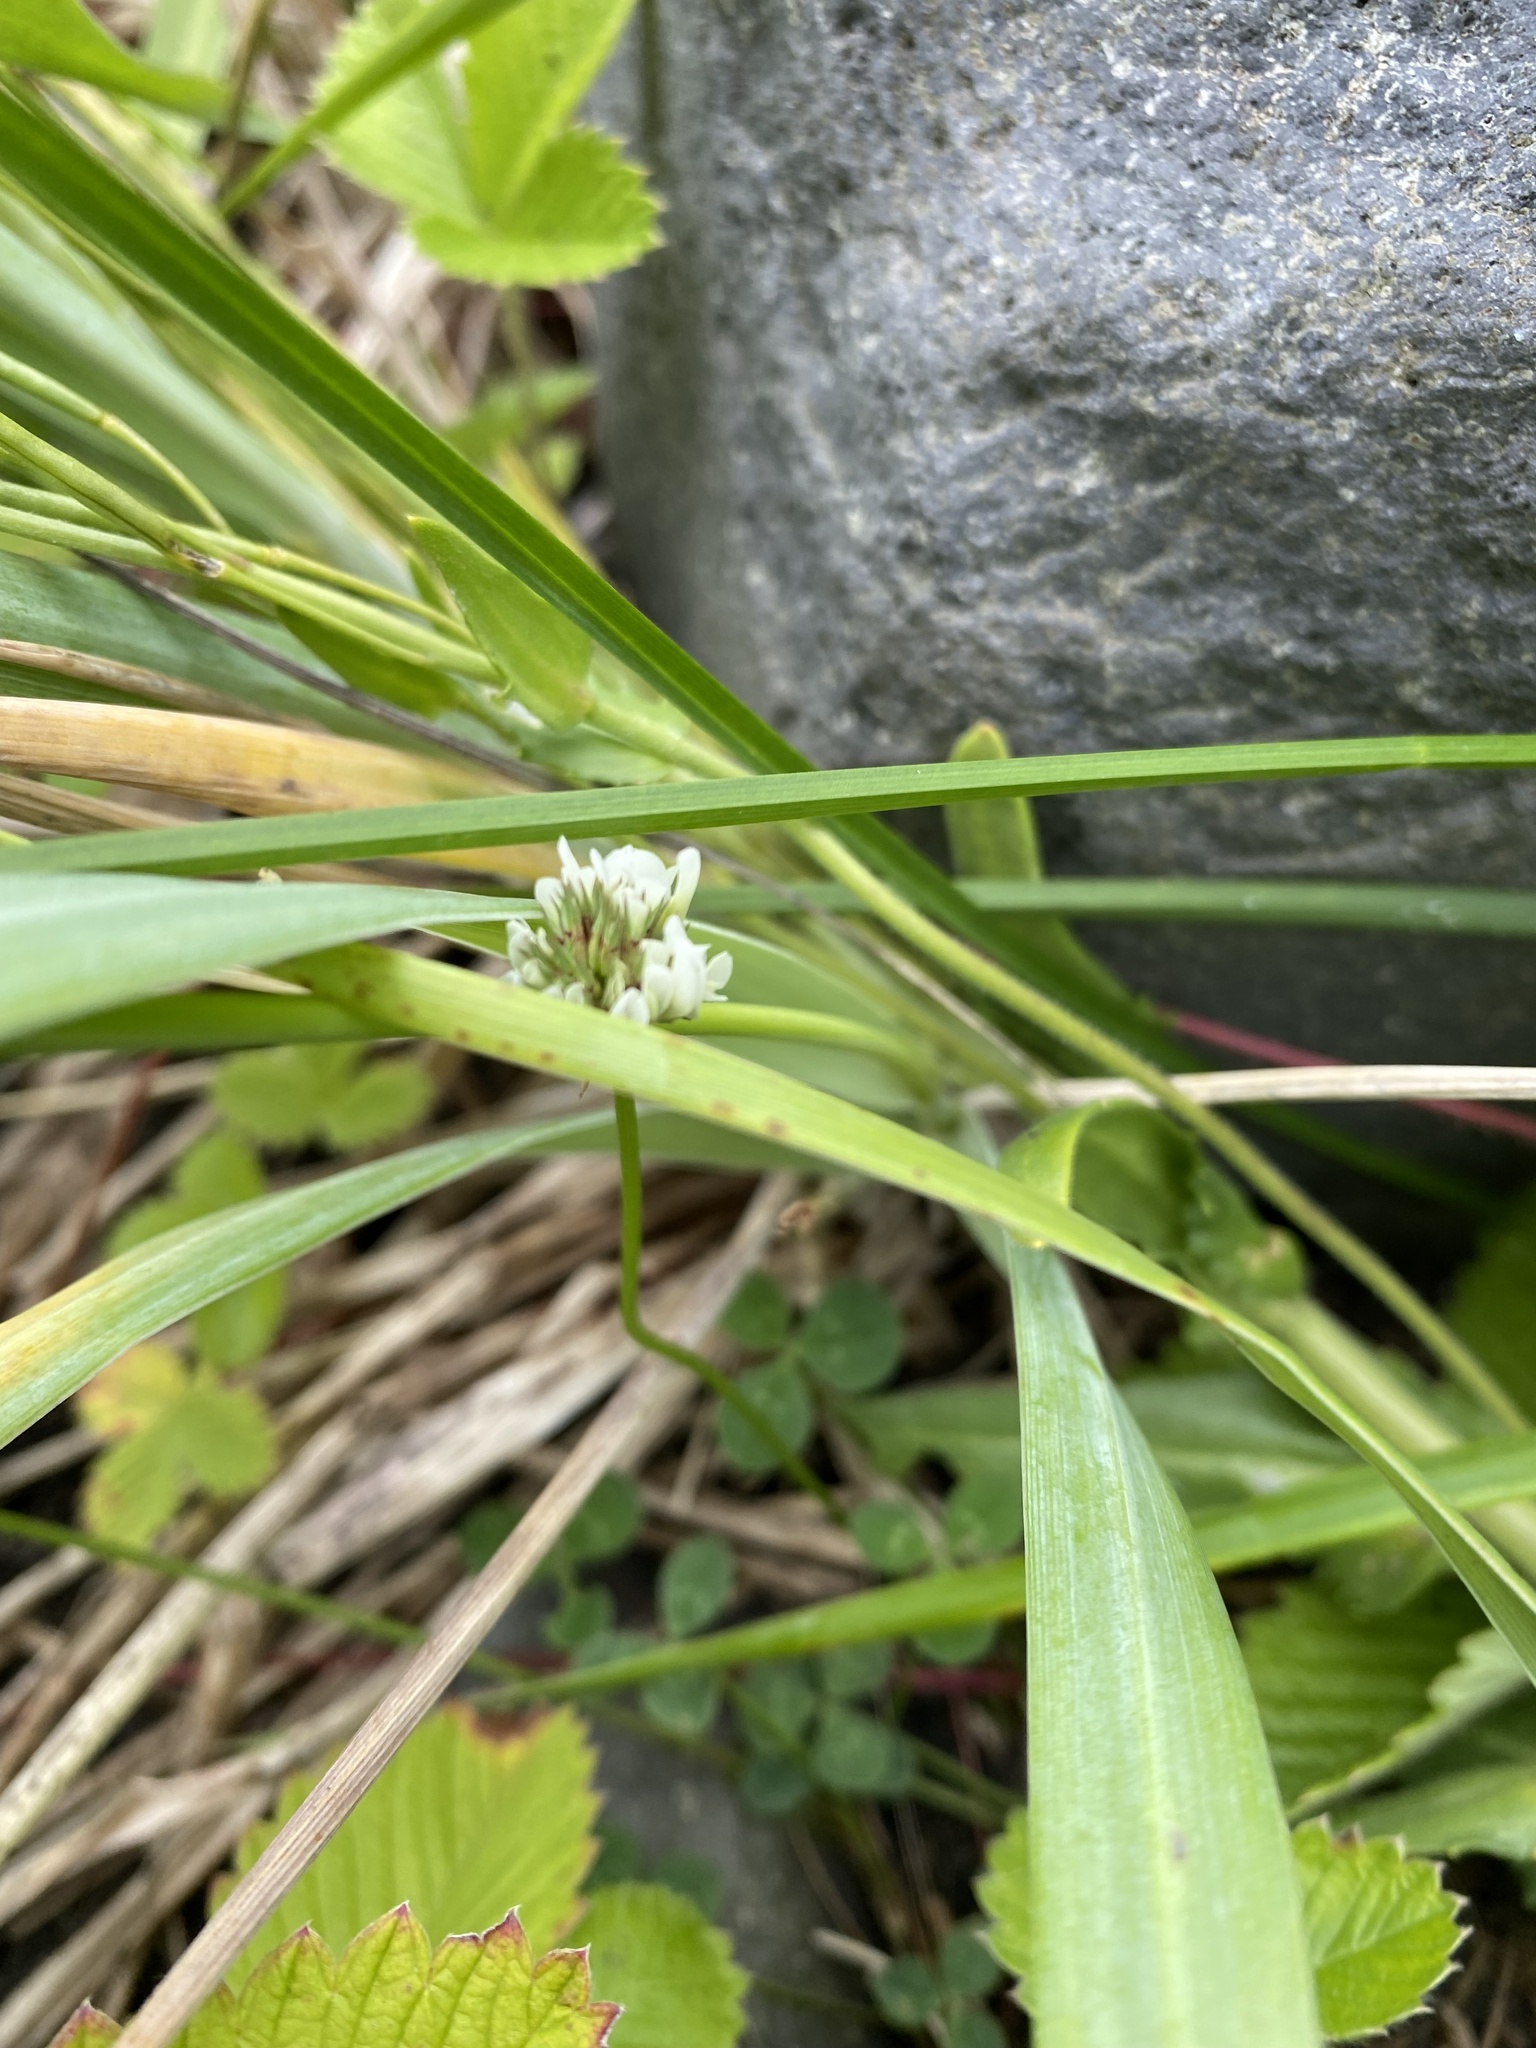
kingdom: Plantae
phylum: Tracheophyta
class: Magnoliopsida
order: Fabales
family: Fabaceae
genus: Trifolium
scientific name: Trifolium repens
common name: White clover
